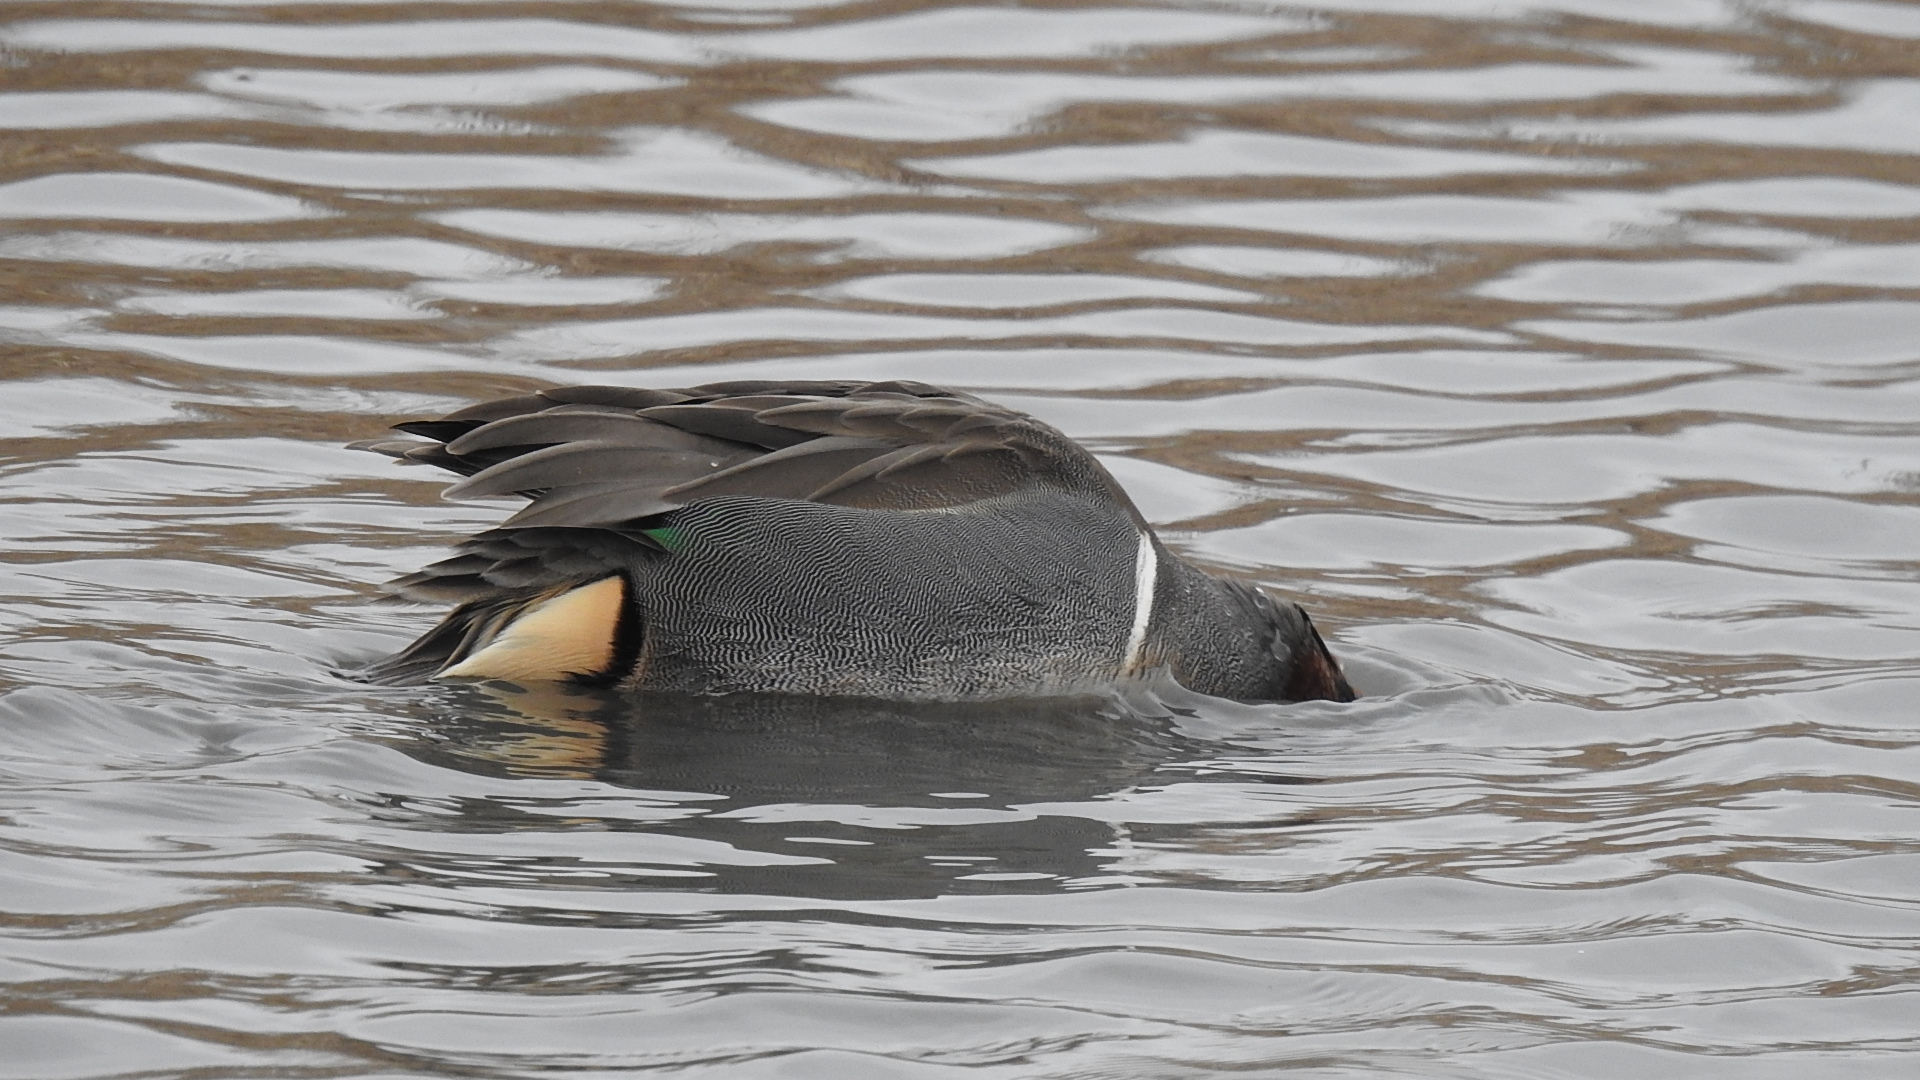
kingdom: Animalia
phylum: Chordata
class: Aves
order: Anseriformes
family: Anatidae
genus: Anas
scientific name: Anas crecca
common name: Eurasian teal
